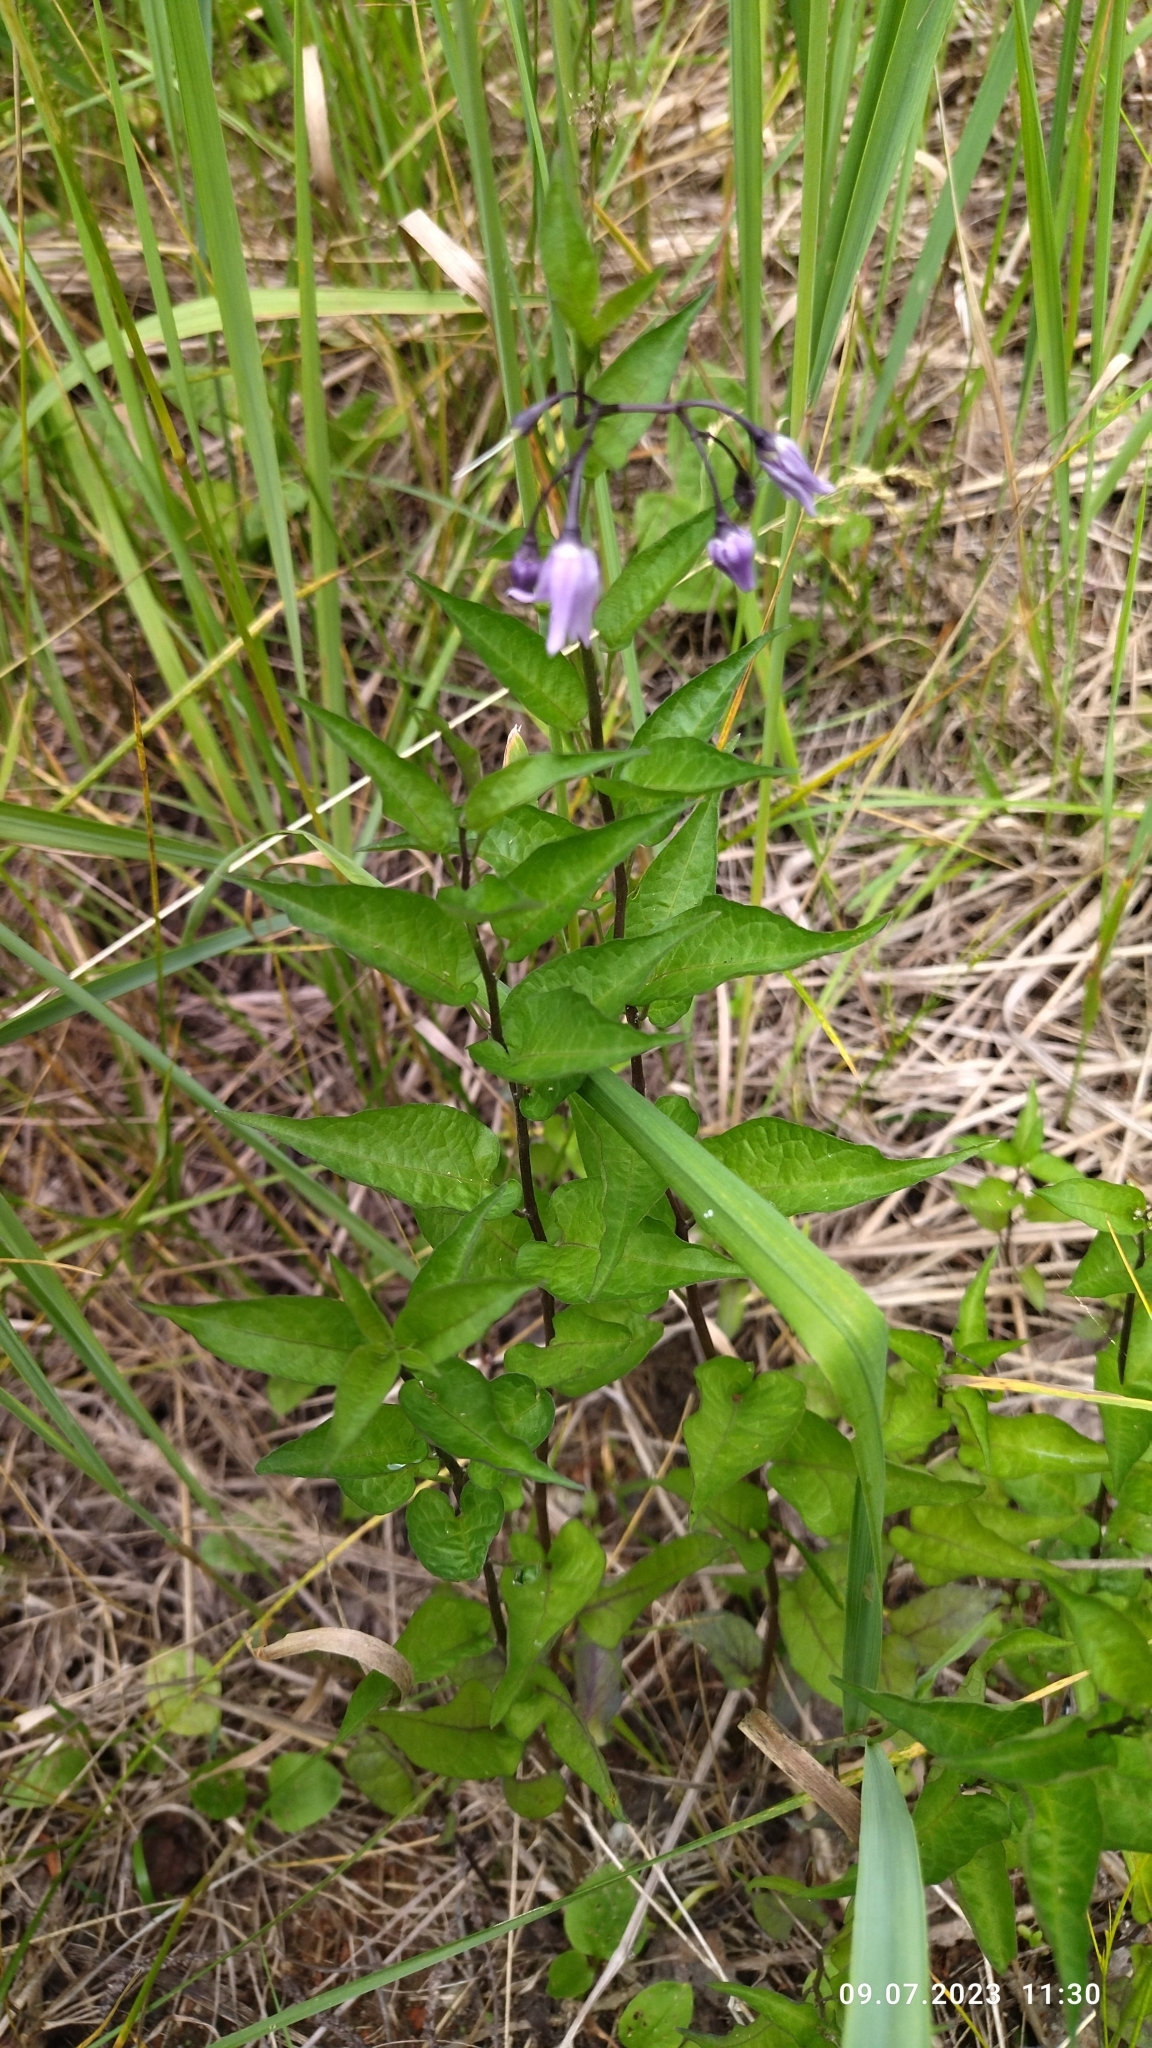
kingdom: Plantae
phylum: Tracheophyta
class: Magnoliopsida
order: Solanales
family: Solanaceae
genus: Solanum
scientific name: Solanum dulcamara
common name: Climbing nightshade
